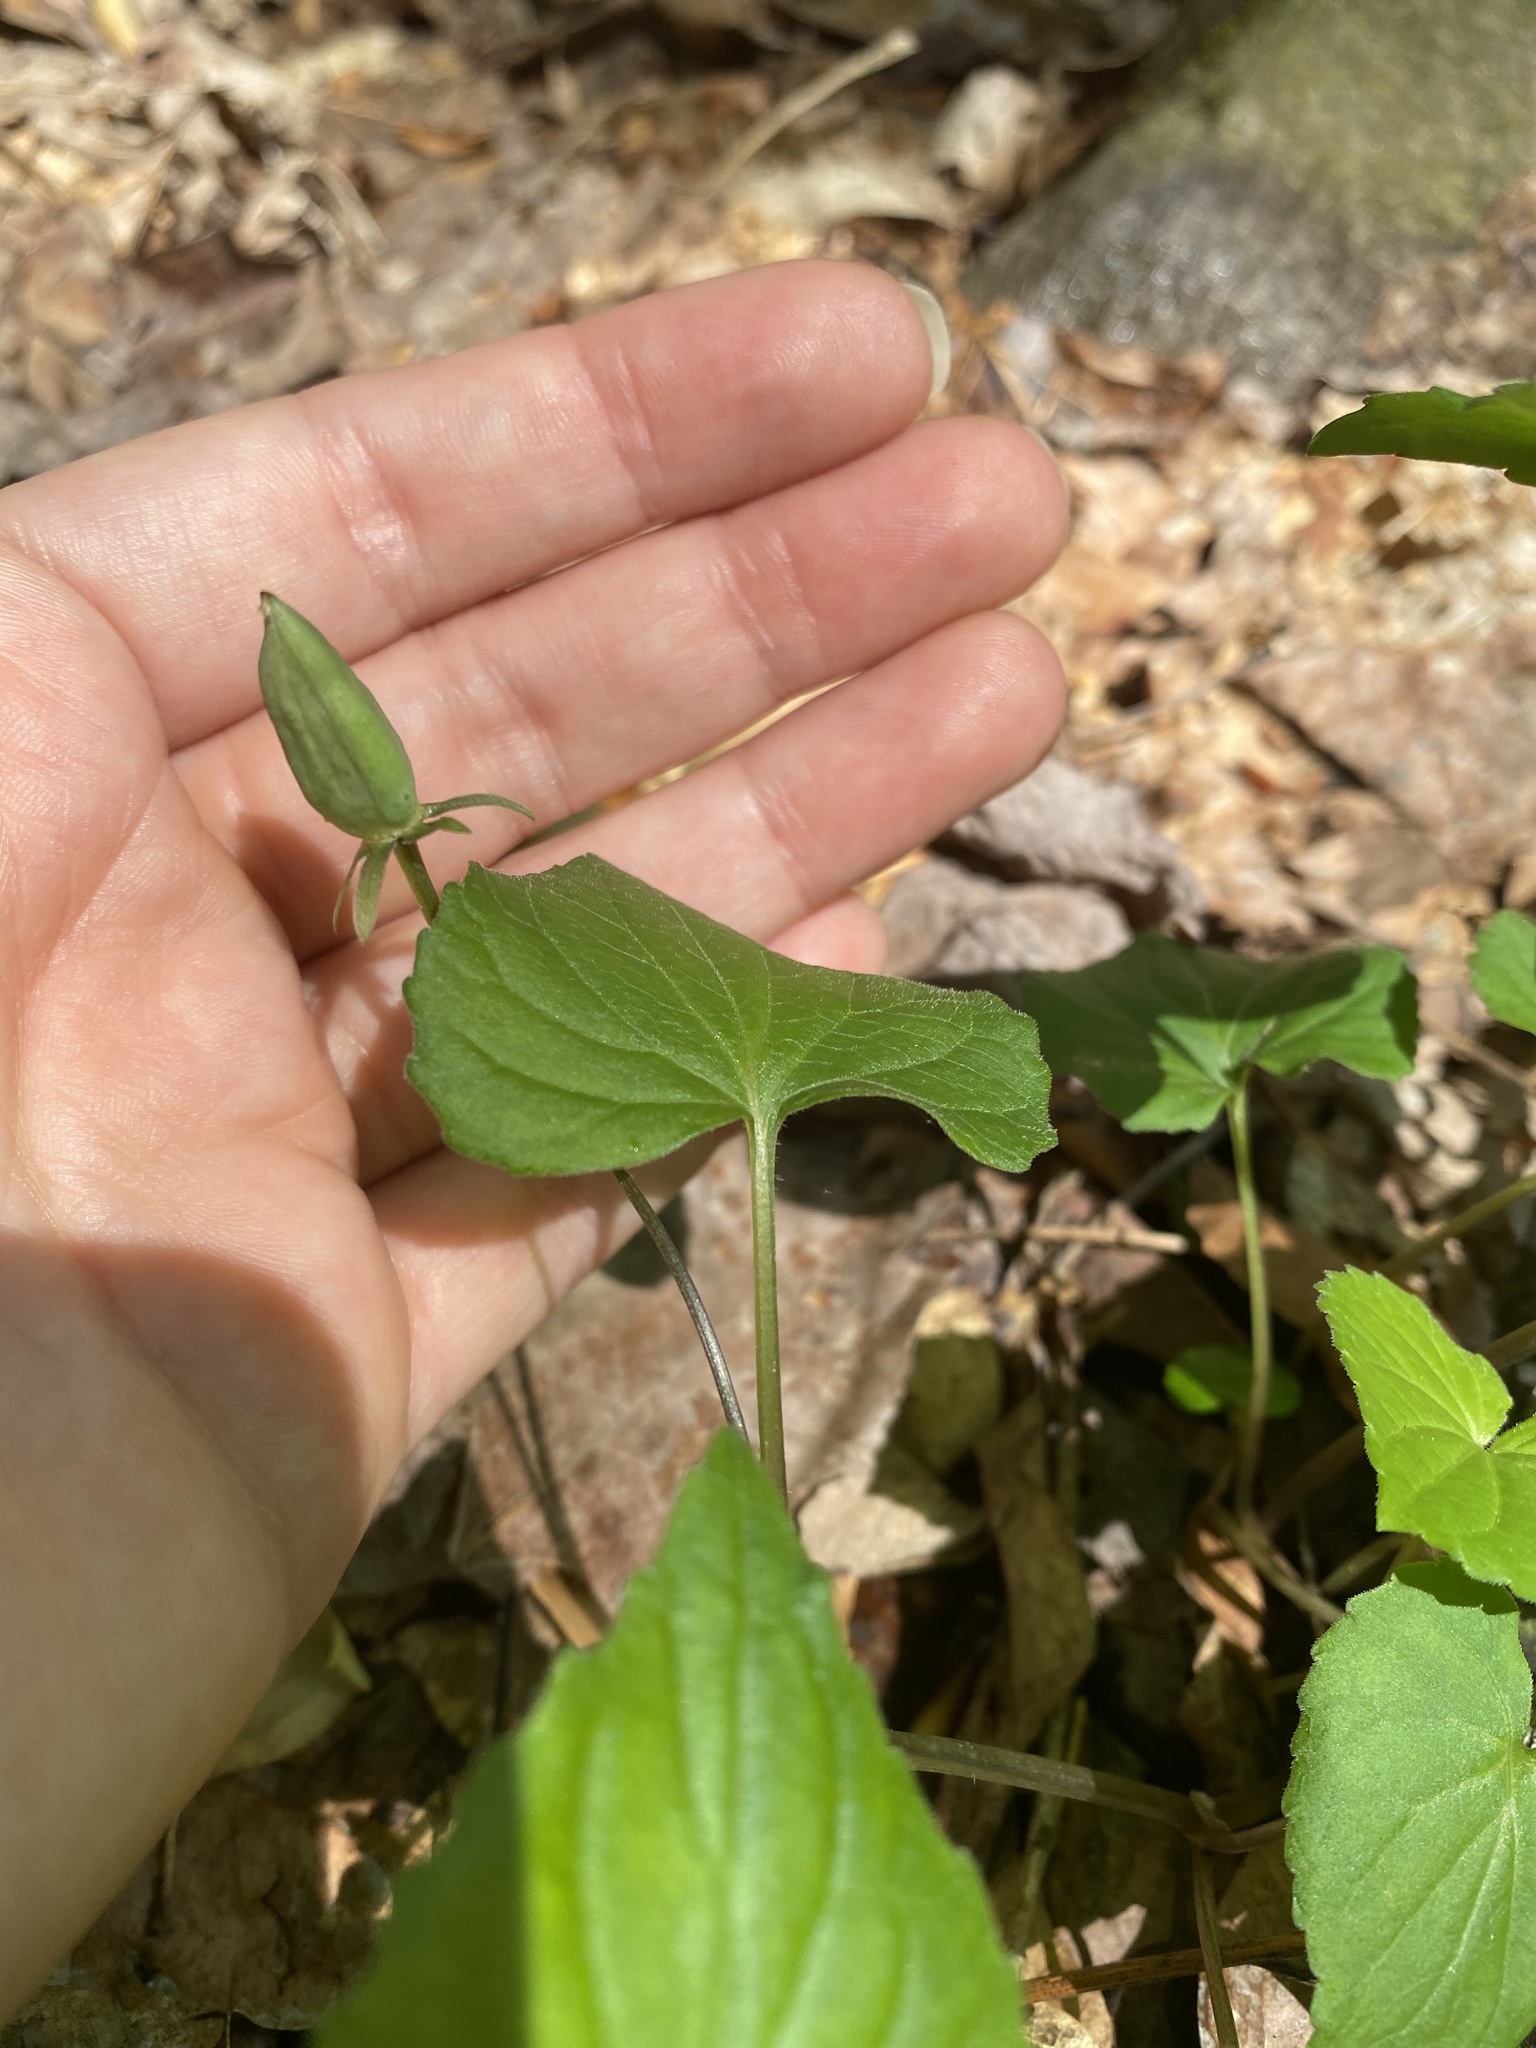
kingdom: Plantae
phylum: Tracheophyta
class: Magnoliopsida
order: Malpighiales
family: Violaceae
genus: Viola
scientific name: Viola eriocarpa
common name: Smooth yellow violet
